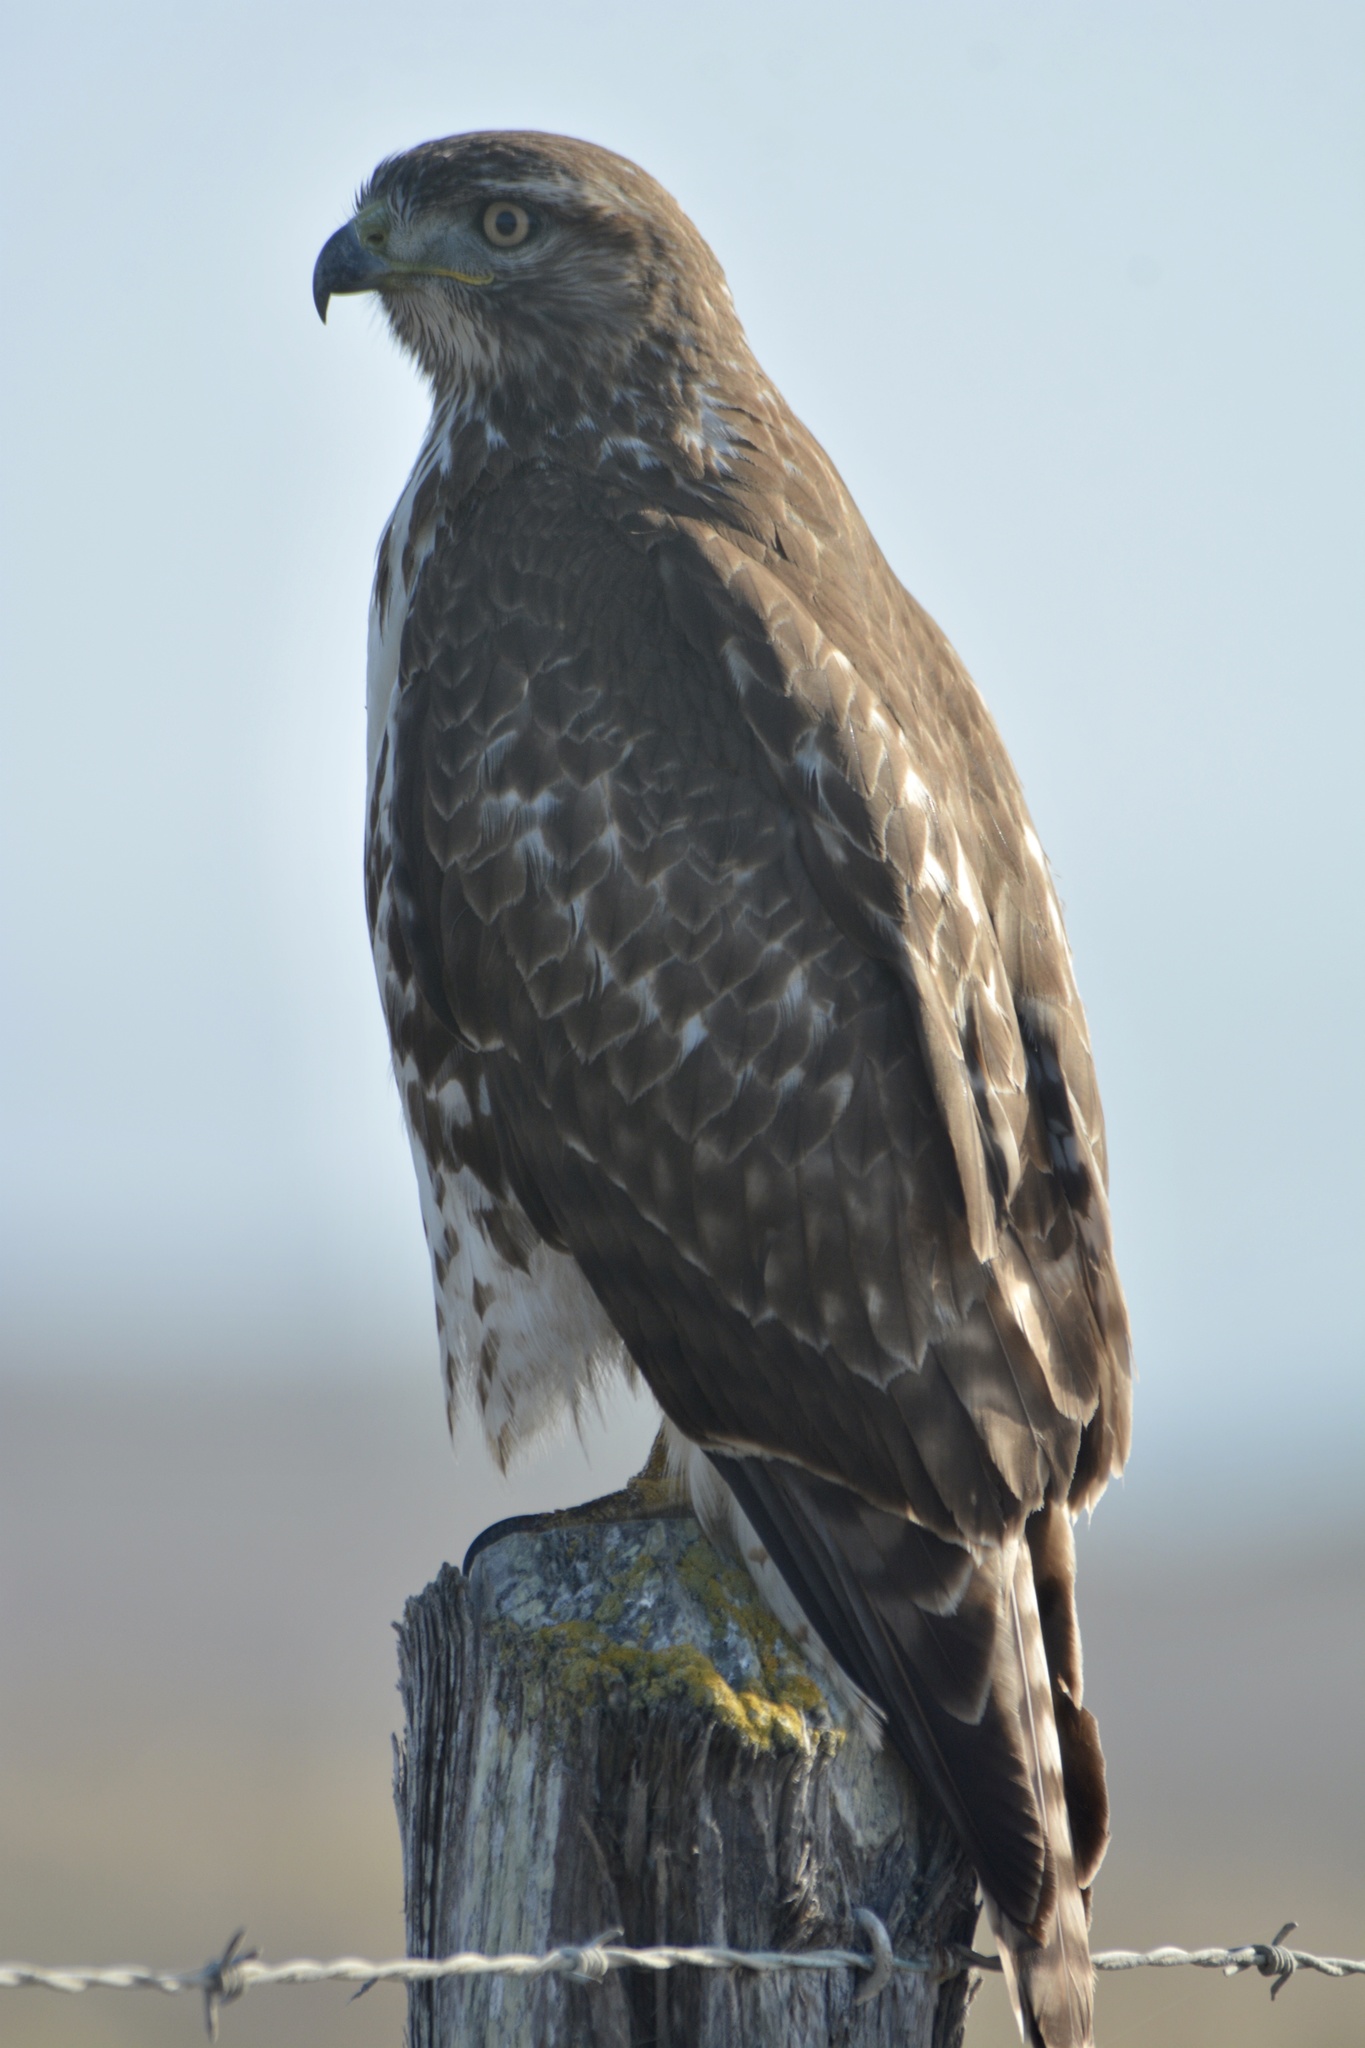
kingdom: Animalia
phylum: Chordata
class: Aves
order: Accipitriformes
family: Accipitridae
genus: Buteo
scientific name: Buteo jamaicensis
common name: Red-tailed hawk
